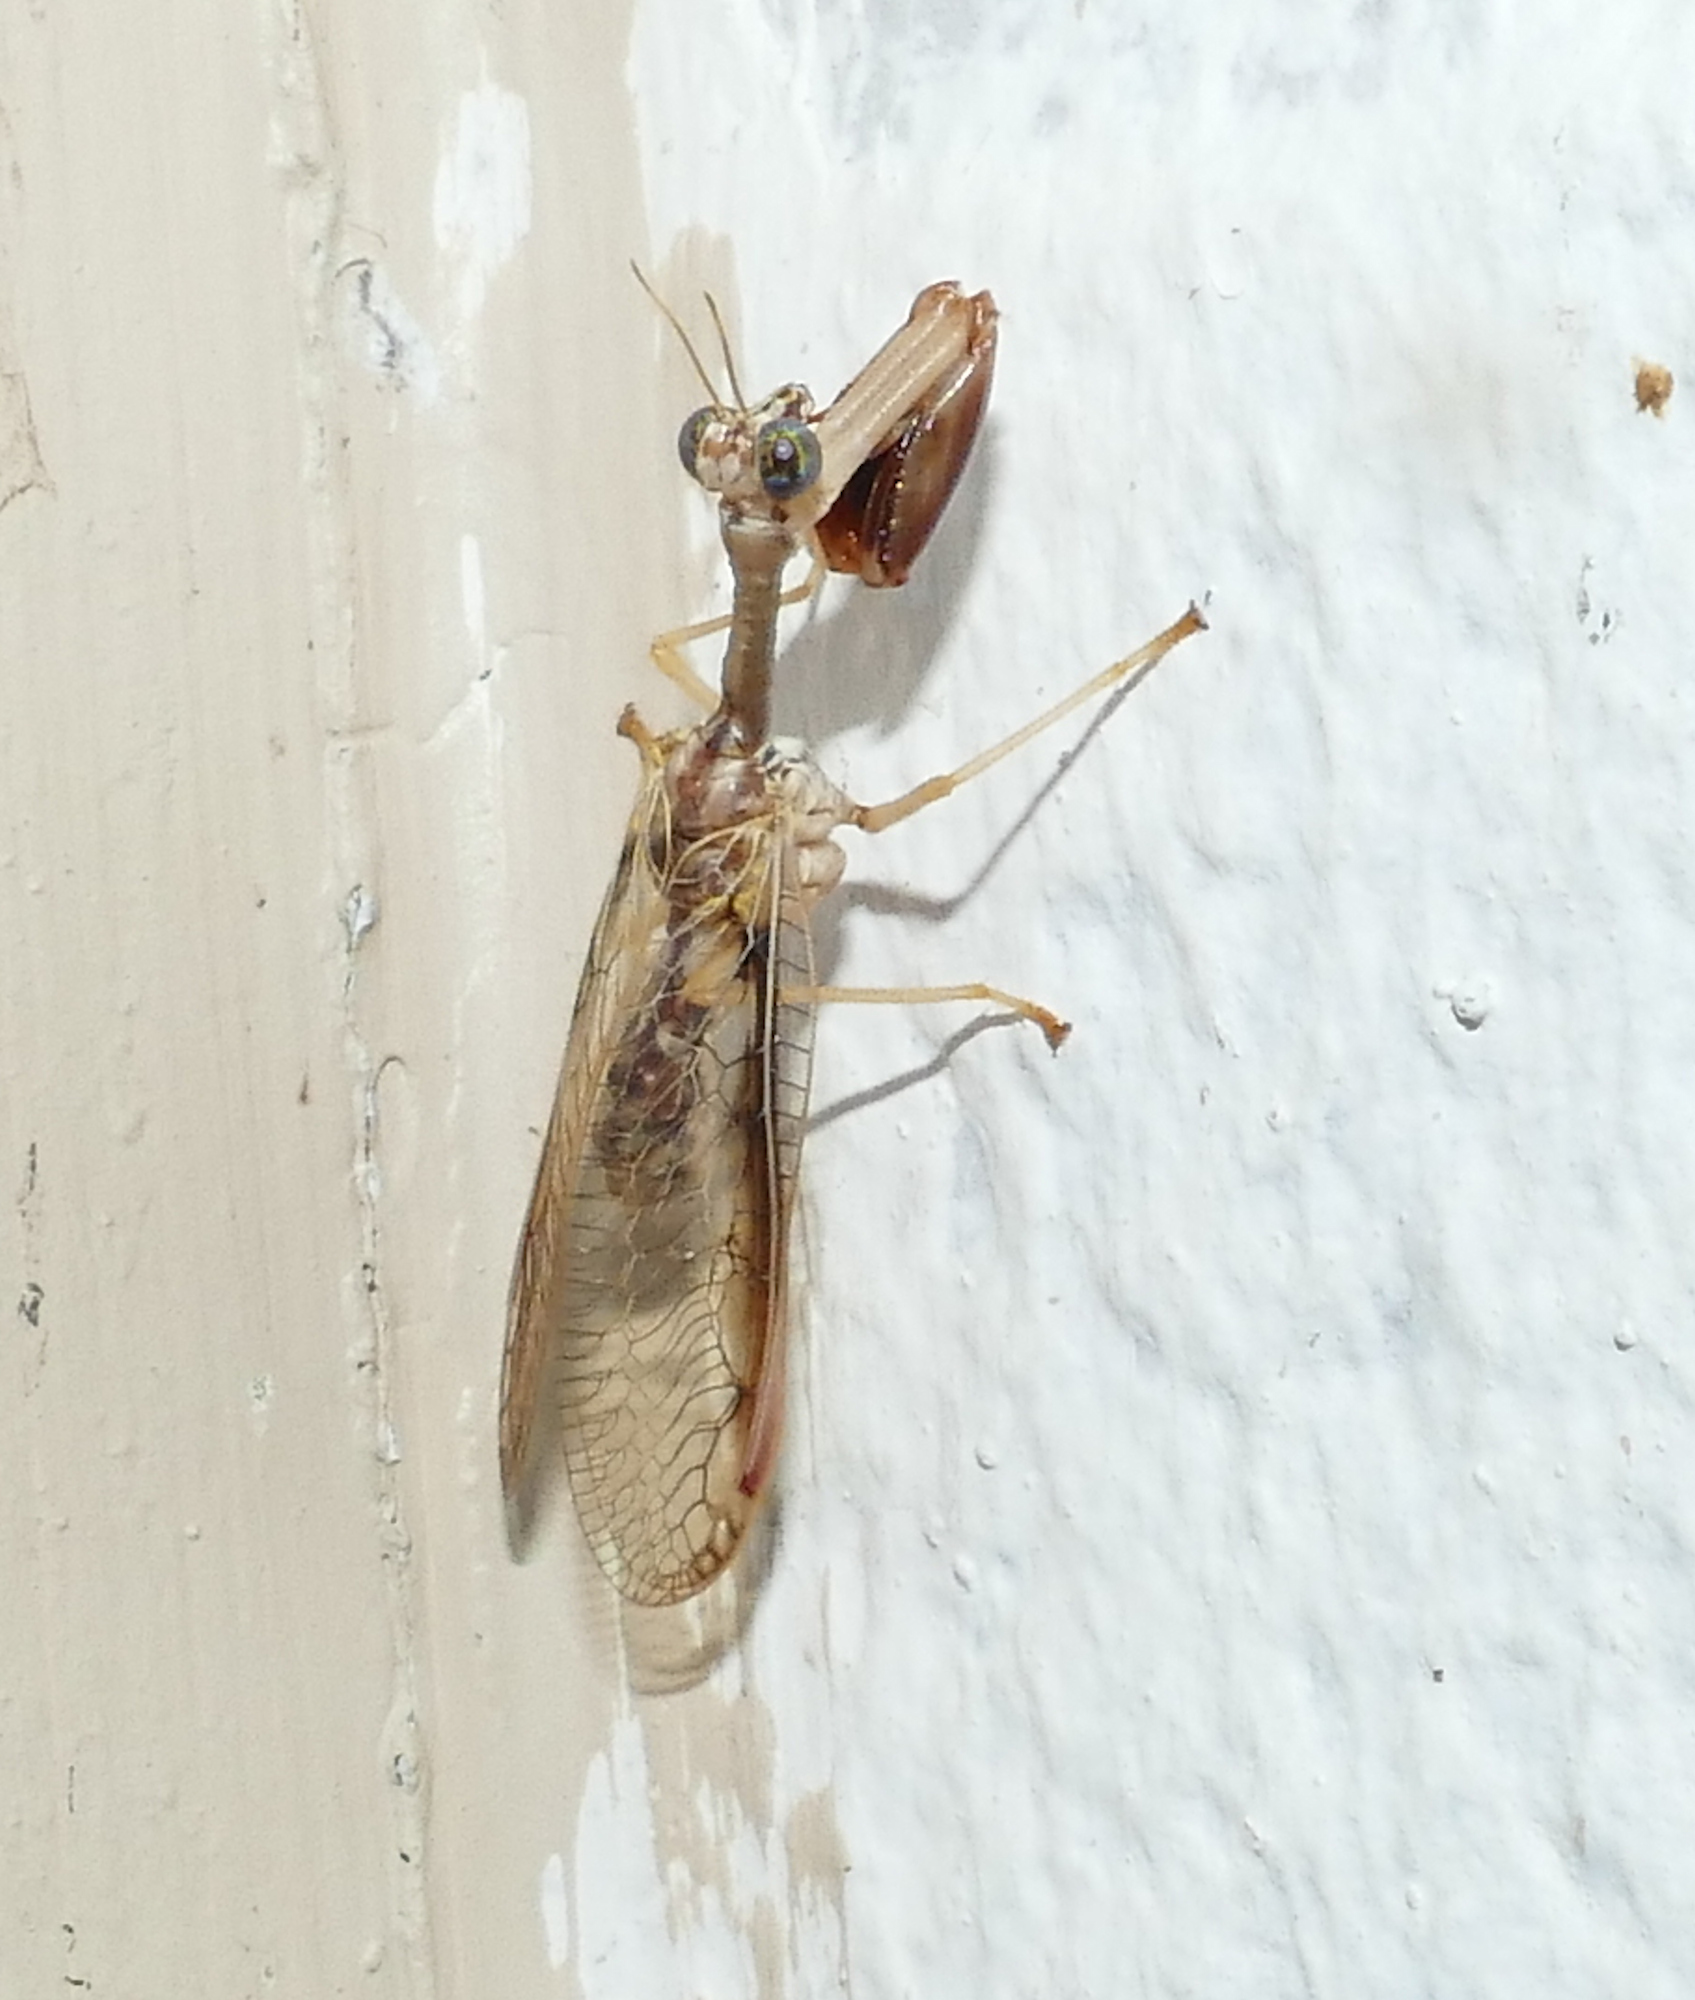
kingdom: Animalia
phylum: Arthropoda
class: Insecta
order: Neuroptera
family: Mantispidae
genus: Dicromantispa
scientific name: Dicromantispa interrupta
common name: Four-spotted mantidfly
